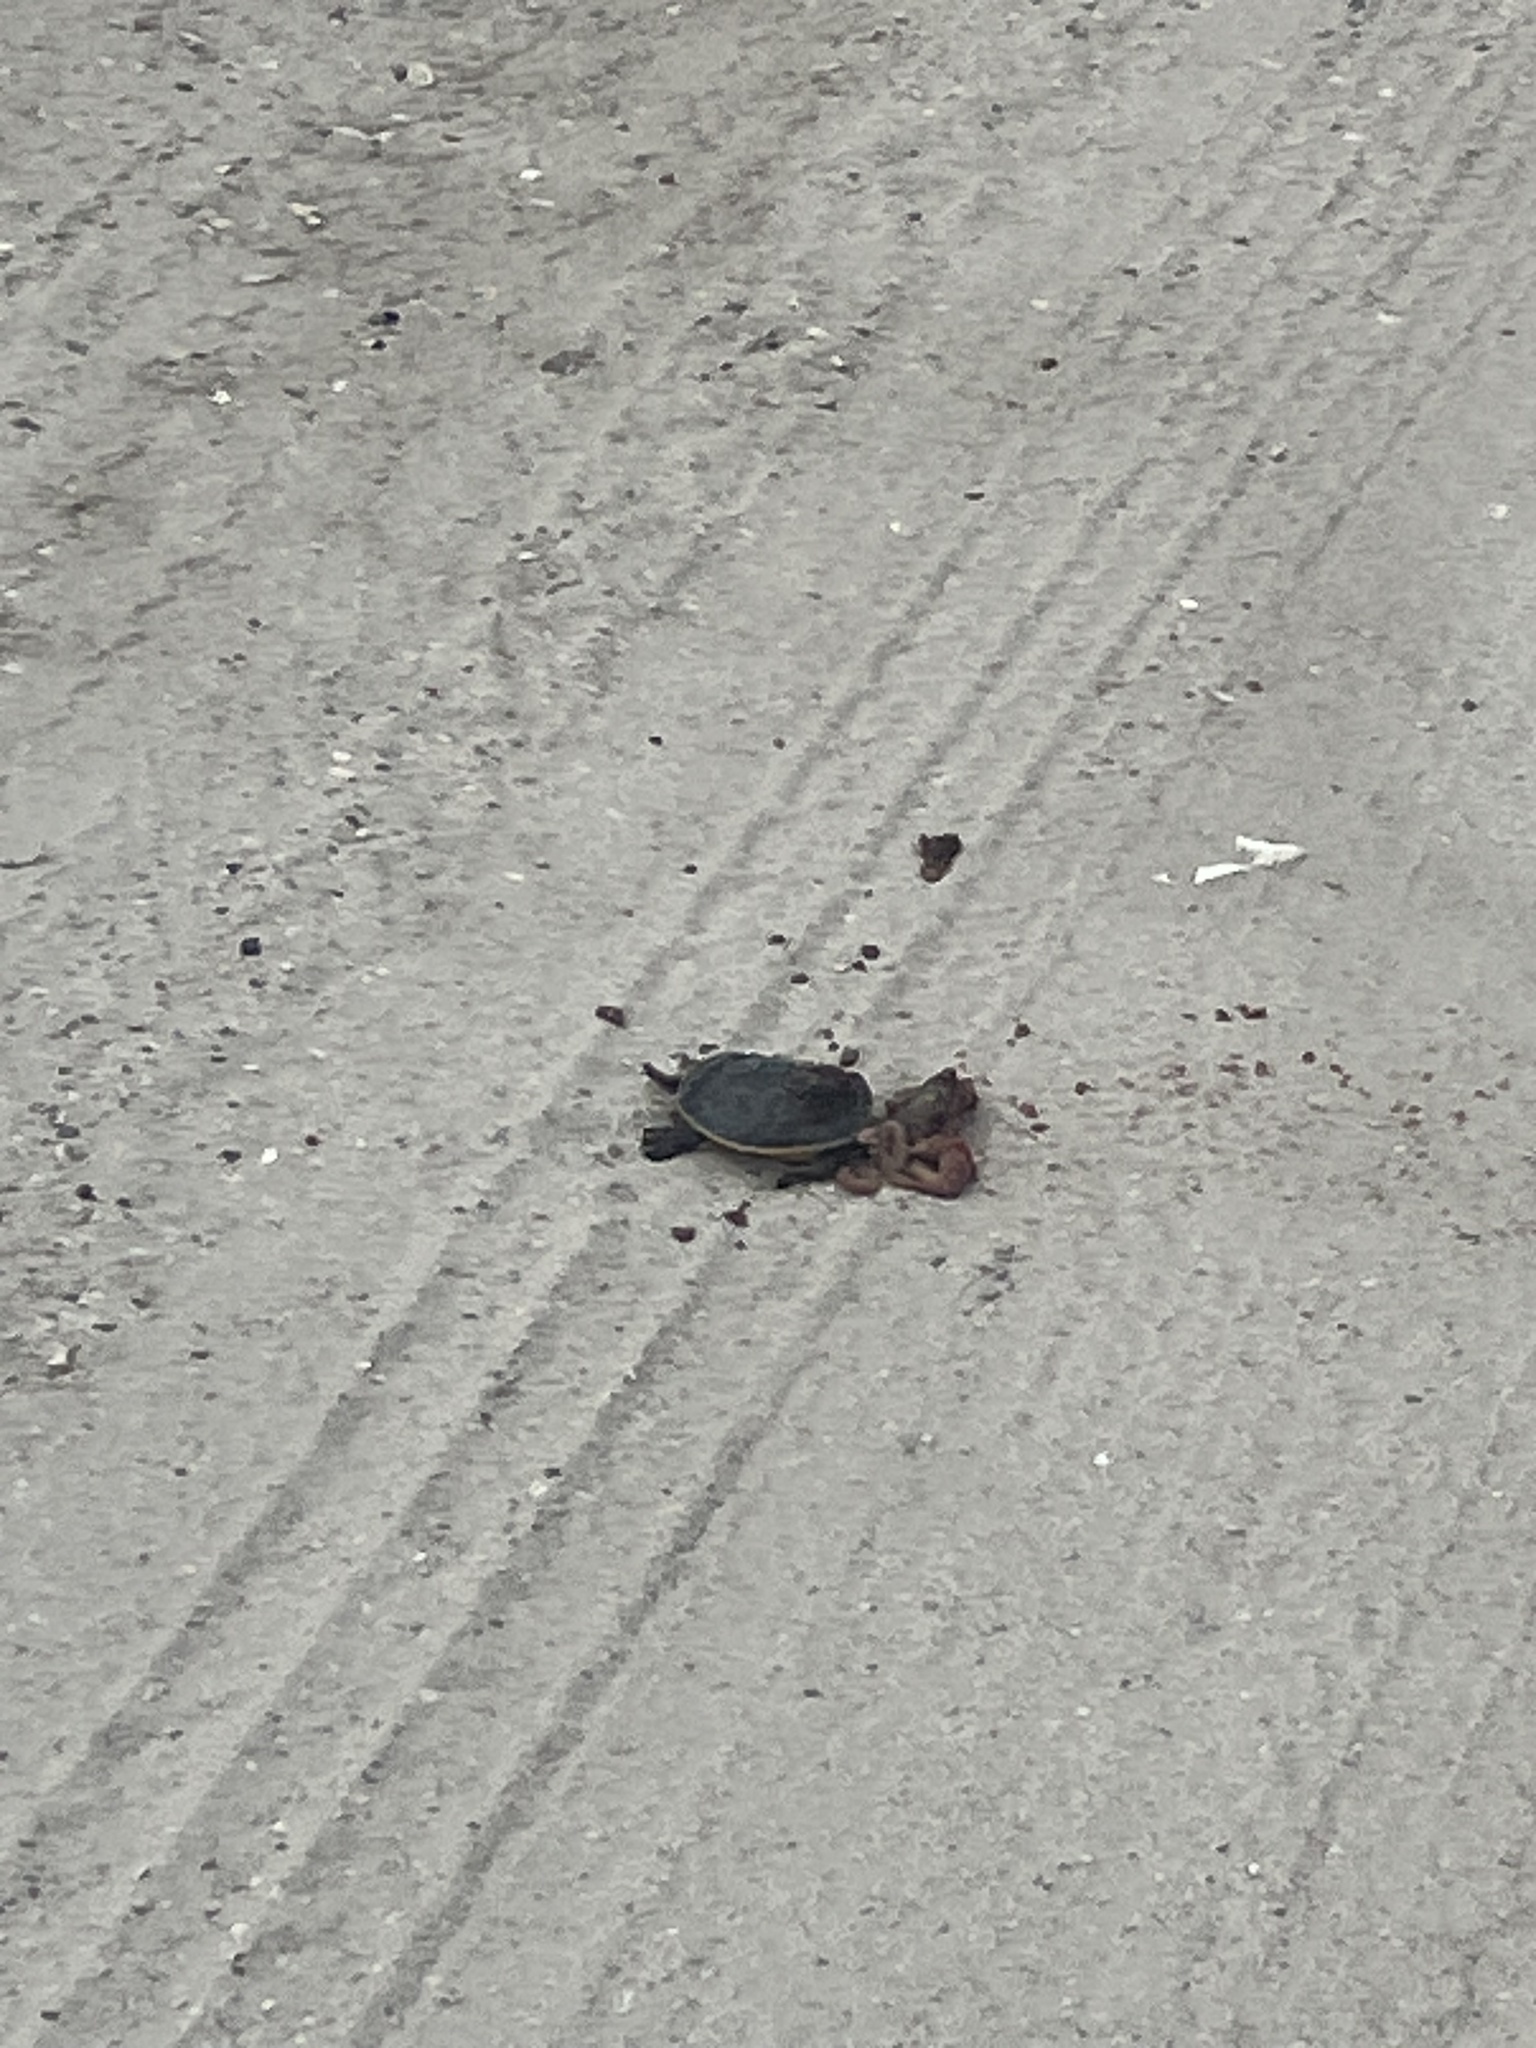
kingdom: Animalia
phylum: Chordata
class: Testudines
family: Emydidae
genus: Deirochelys
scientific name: Deirochelys reticularia
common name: Chicken turtle
